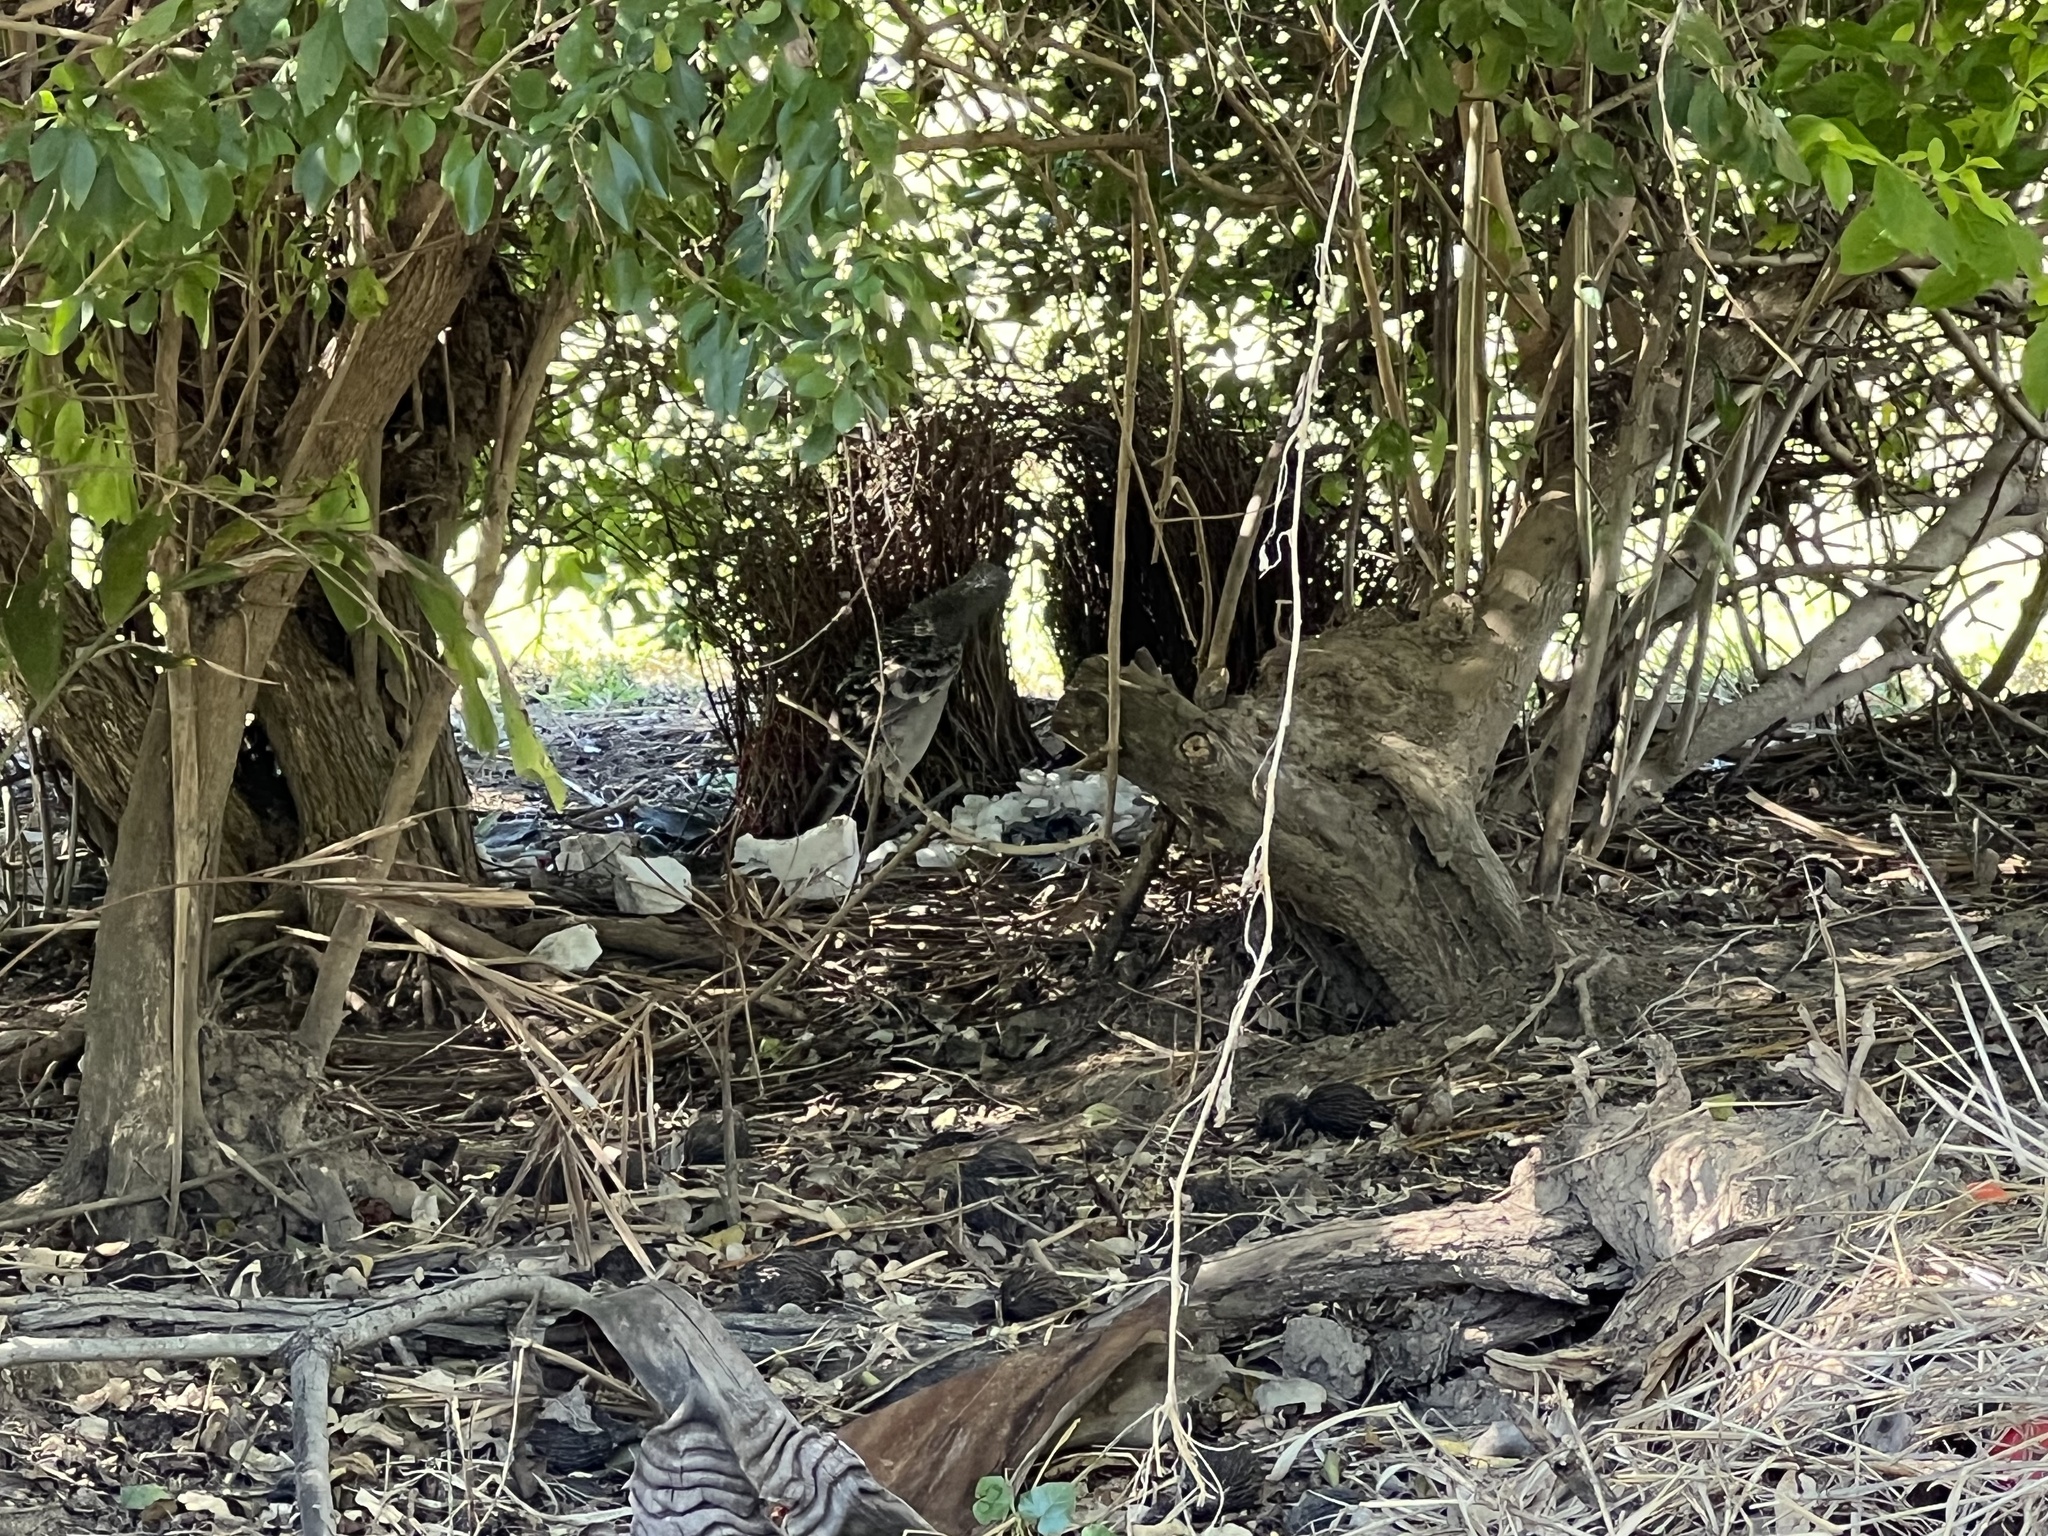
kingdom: Animalia
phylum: Chordata
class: Aves
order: Passeriformes
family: Ptilonorhynchidae
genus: Chlamydera
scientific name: Chlamydera nuchalis
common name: Great bowerbird
